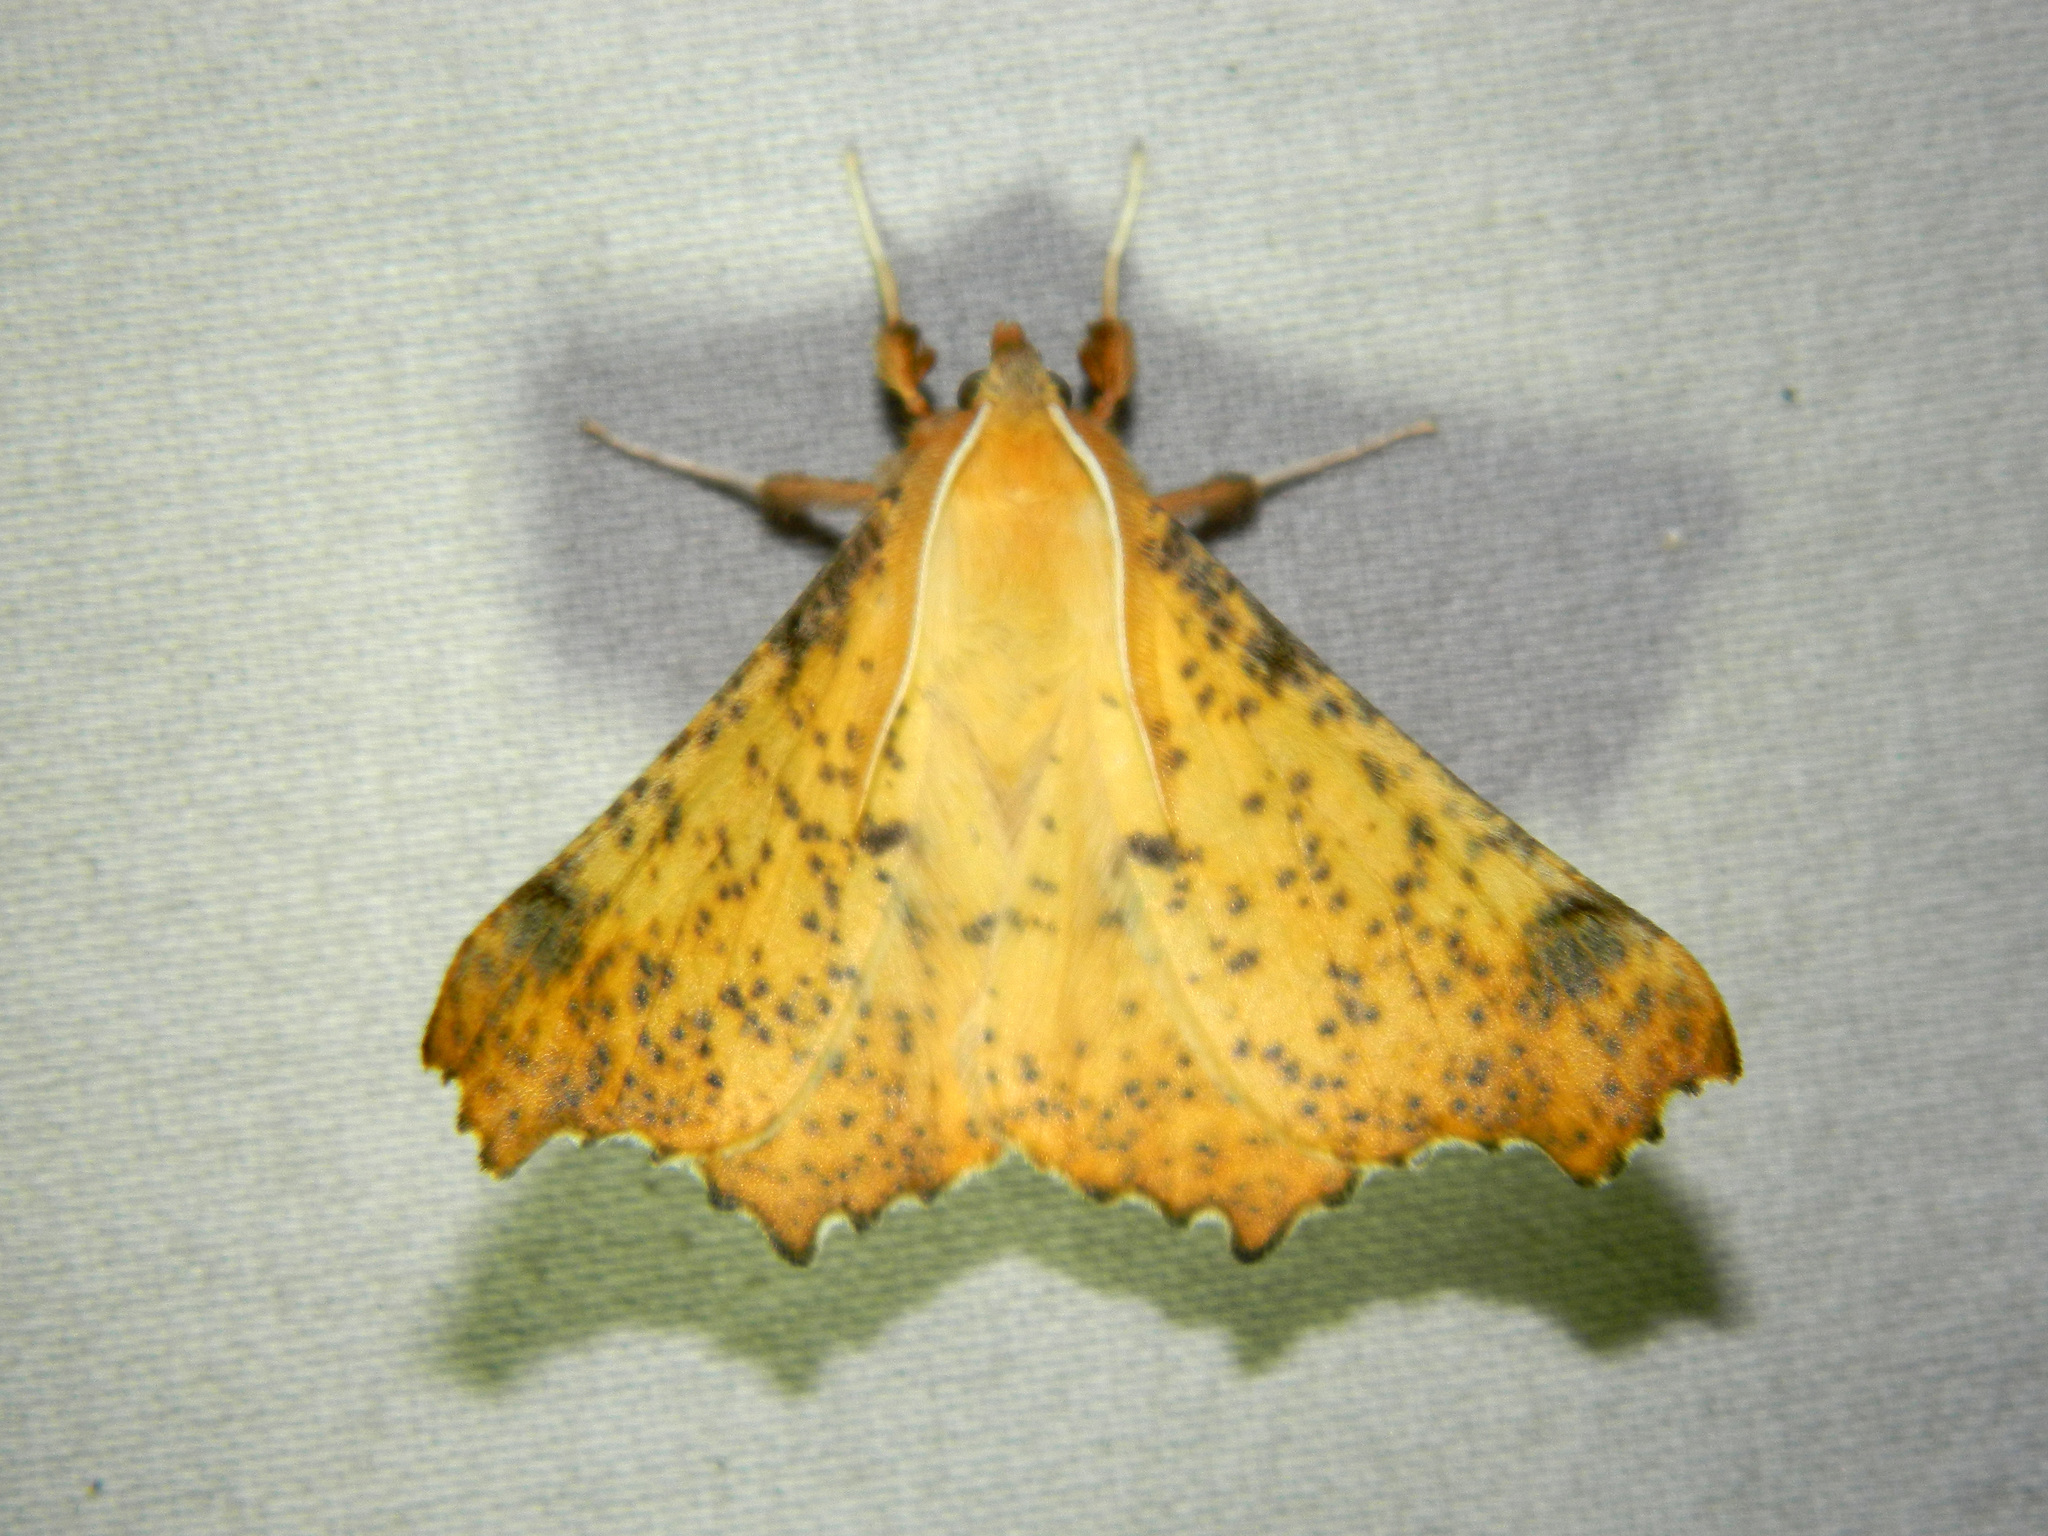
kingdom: Animalia
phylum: Arthropoda
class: Insecta
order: Lepidoptera
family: Geometridae
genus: Ennomos
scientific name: Ennomos magnaria
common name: Maple spanworm
